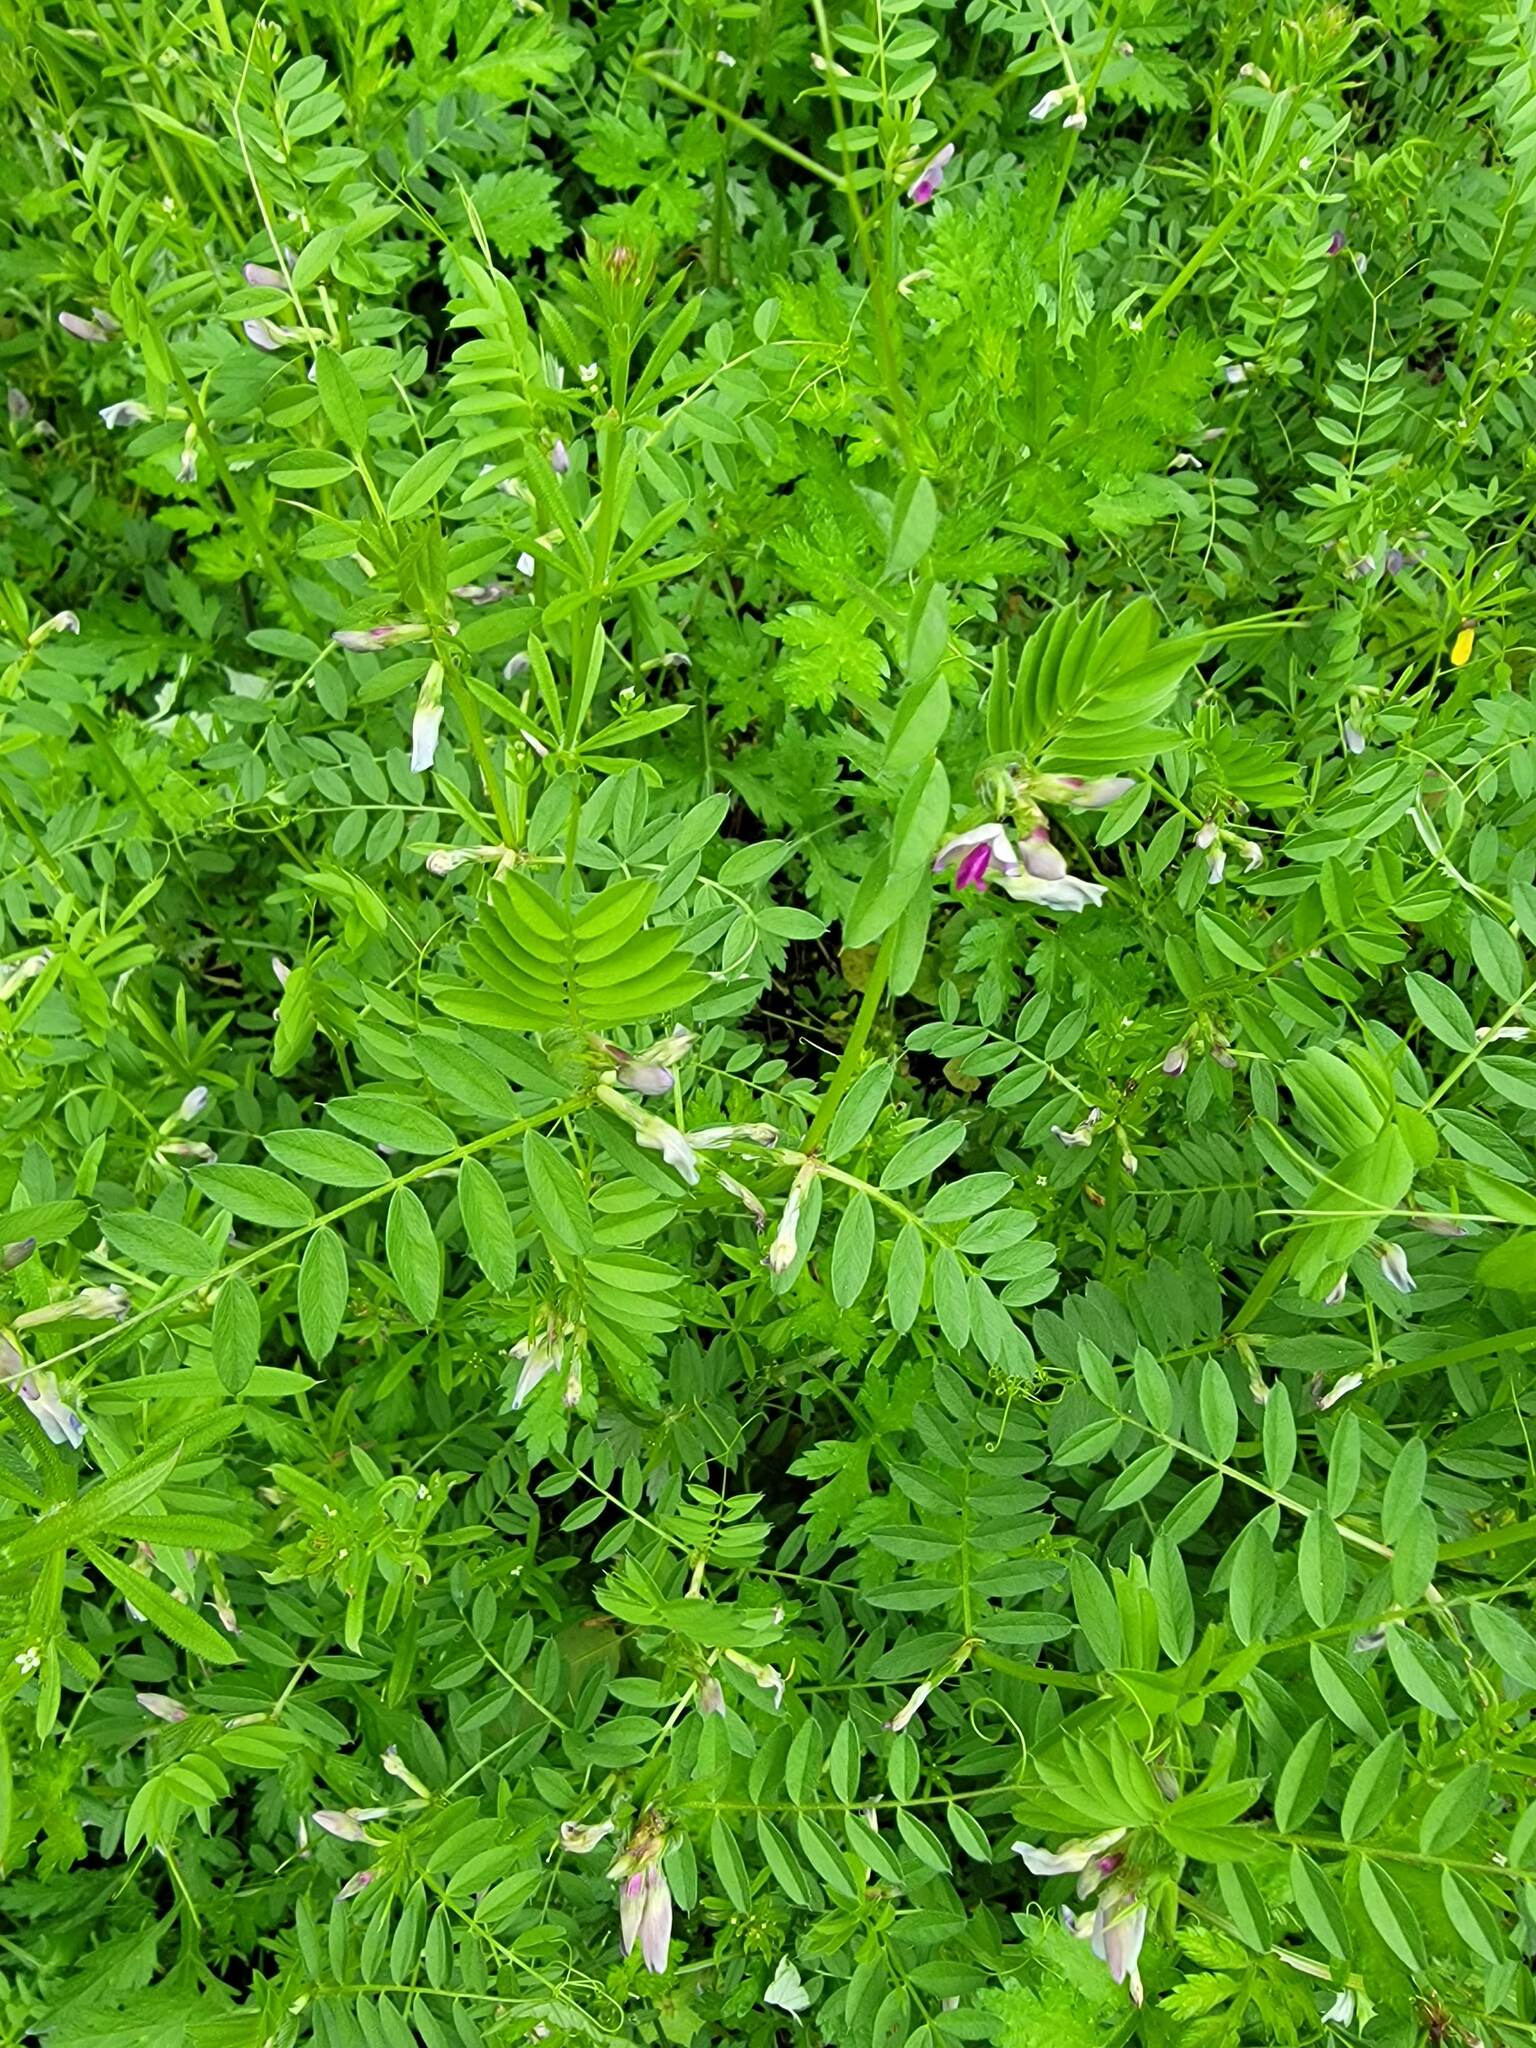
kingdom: Plantae
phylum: Tracheophyta
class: Magnoliopsida
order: Fabales
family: Fabaceae
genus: Vicia
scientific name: Vicia sativa
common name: Garden vetch
